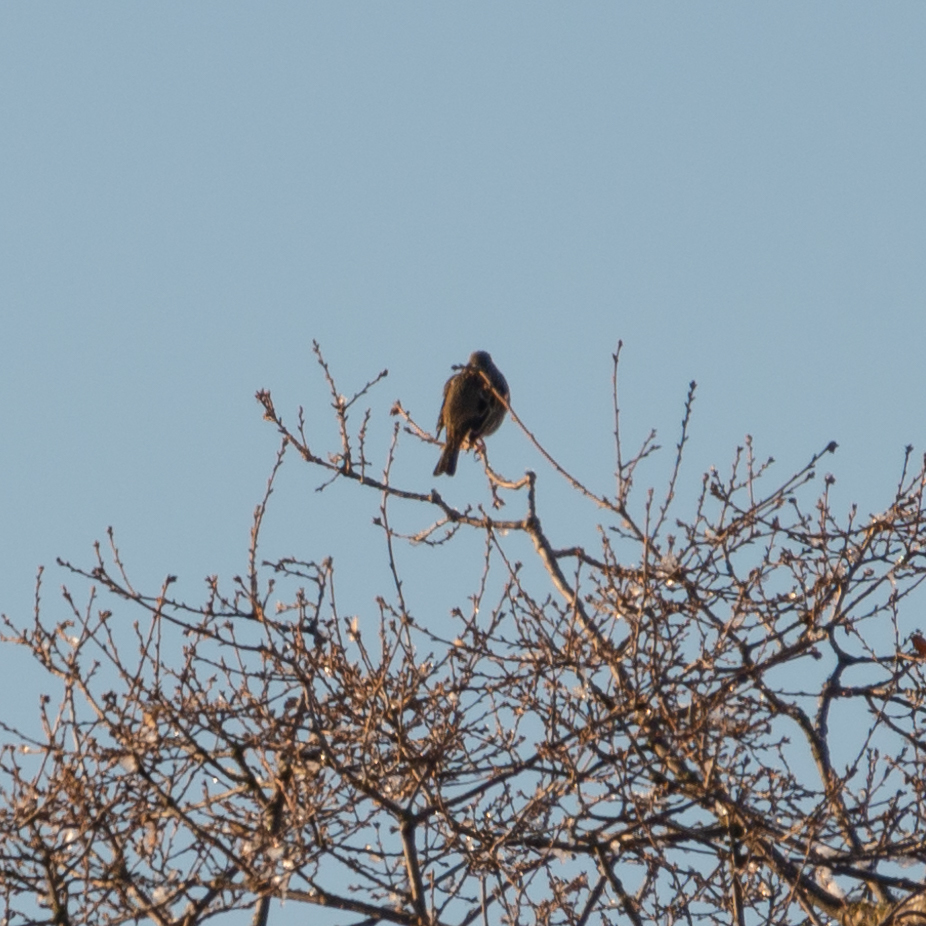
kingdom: Animalia
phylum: Chordata
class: Aves
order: Passeriformes
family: Emberizidae
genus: Emberiza
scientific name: Emberiza calandra
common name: Corn bunting
